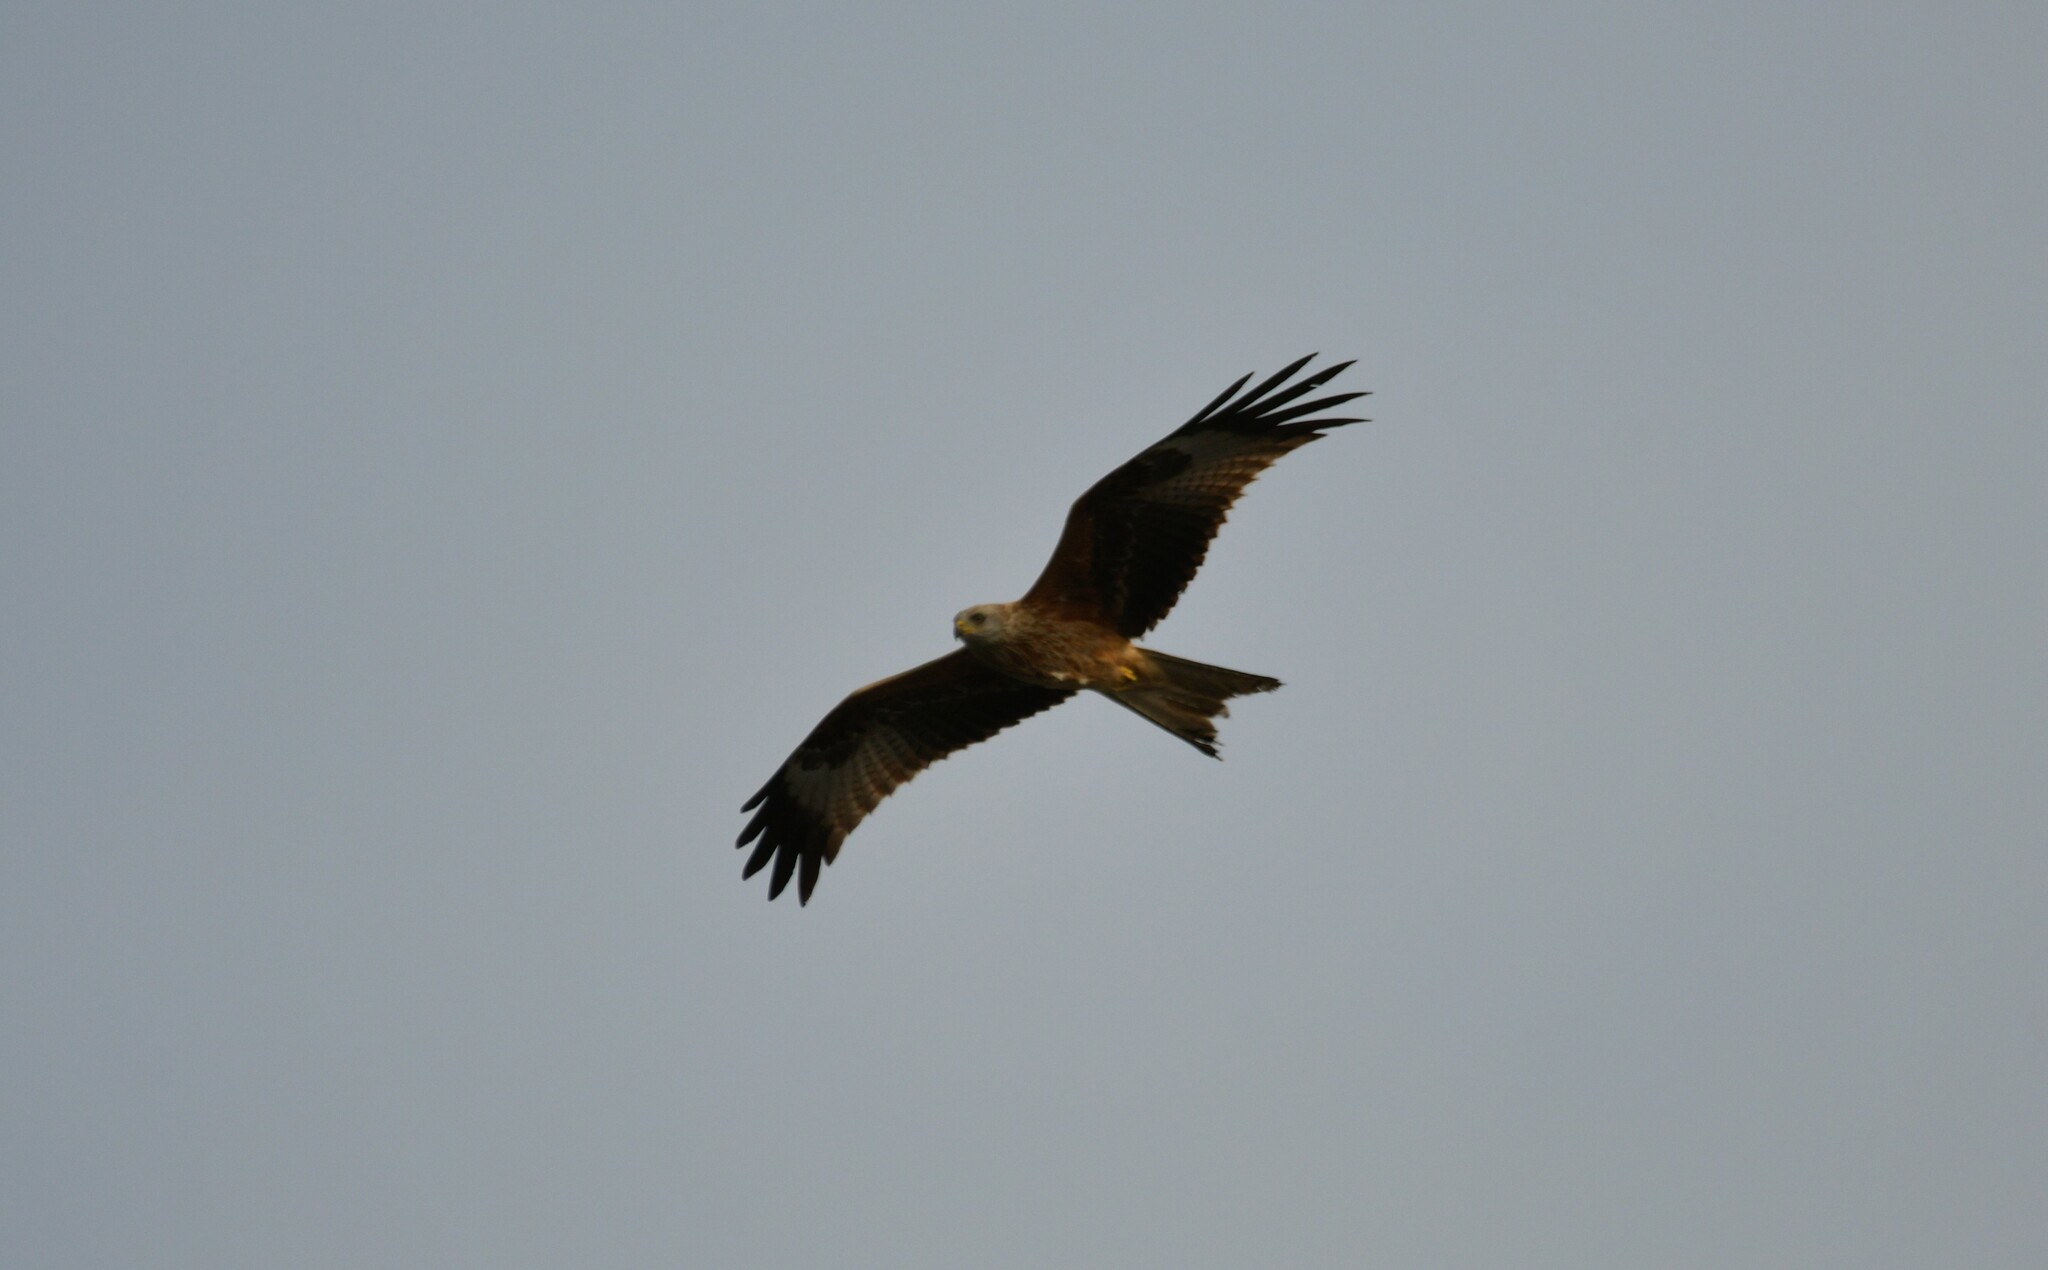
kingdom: Animalia
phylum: Chordata
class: Aves
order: Accipitriformes
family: Accipitridae
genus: Milvus
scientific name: Milvus milvus
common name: Red kite
